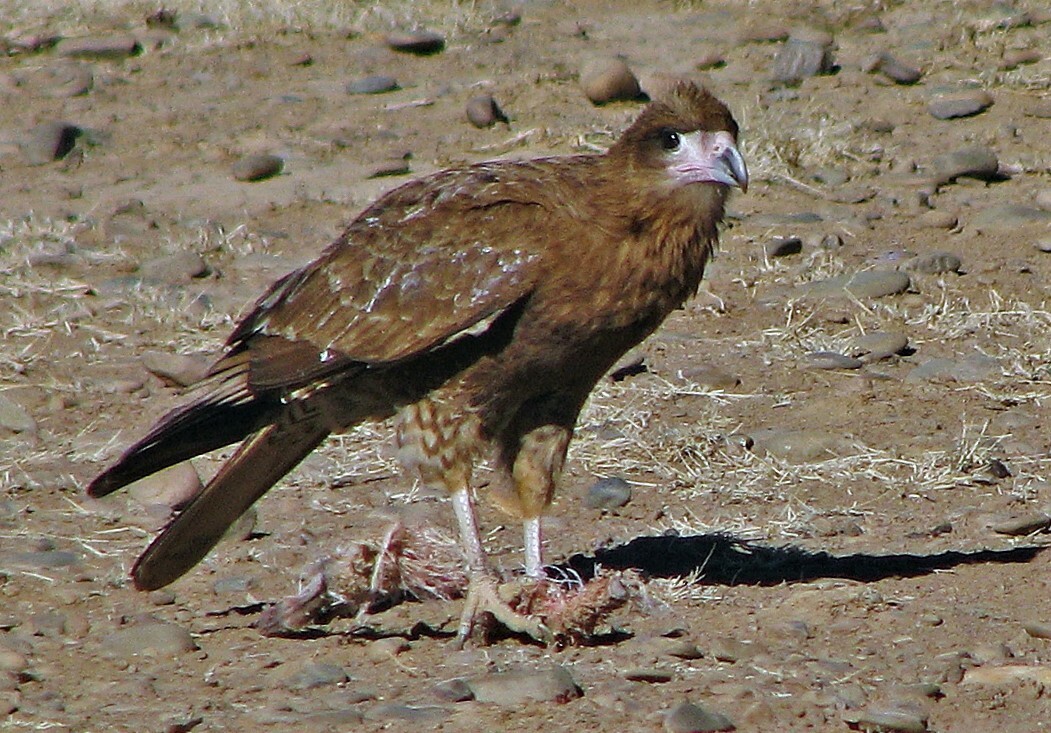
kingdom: Animalia
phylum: Chordata
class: Aves
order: Falconiformes
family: Falconidae
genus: Daptrius
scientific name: Daptrius
